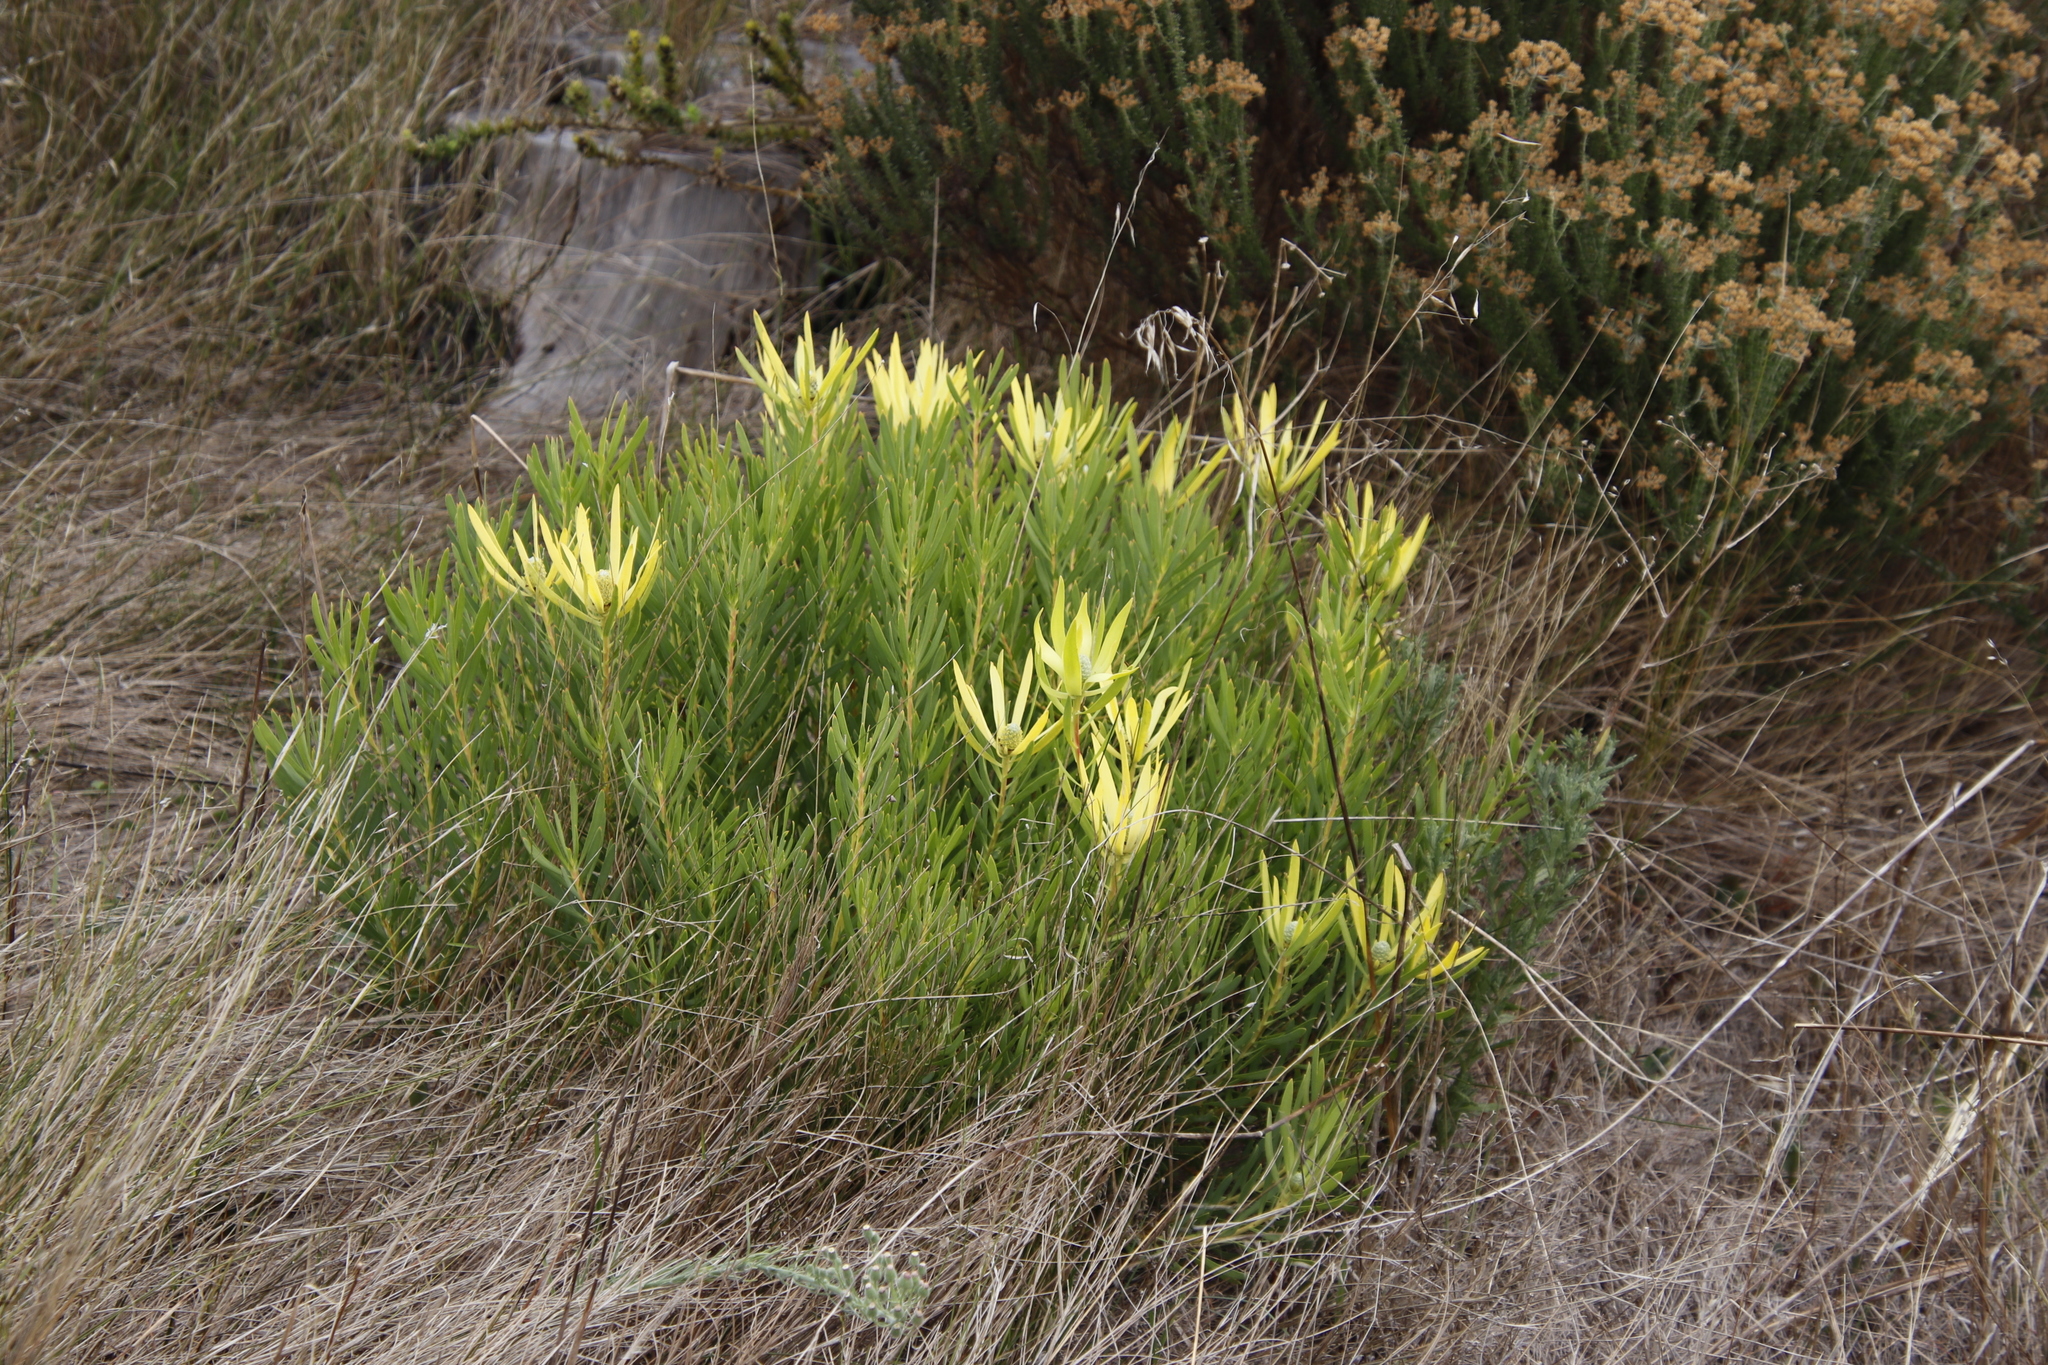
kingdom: Plantae
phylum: Tracheophyta
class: Magnoliopsida
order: Proteales
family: Proteaceae
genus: Leucadendron
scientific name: Leucadendron salignum
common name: Common sunshine conebush
